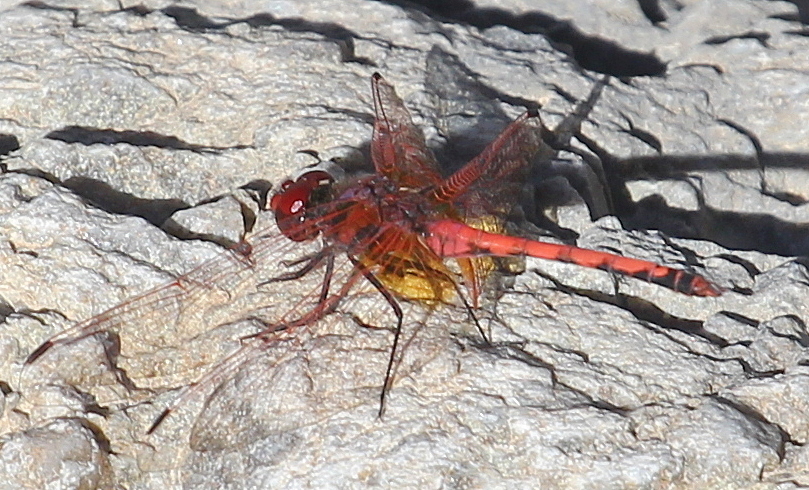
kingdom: Animalia
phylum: Arthropoda
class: Insecta
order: Odonata
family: Libellulidae
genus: Trithemis
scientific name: Trithemis arteriosa
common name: Red-veined dropwing
